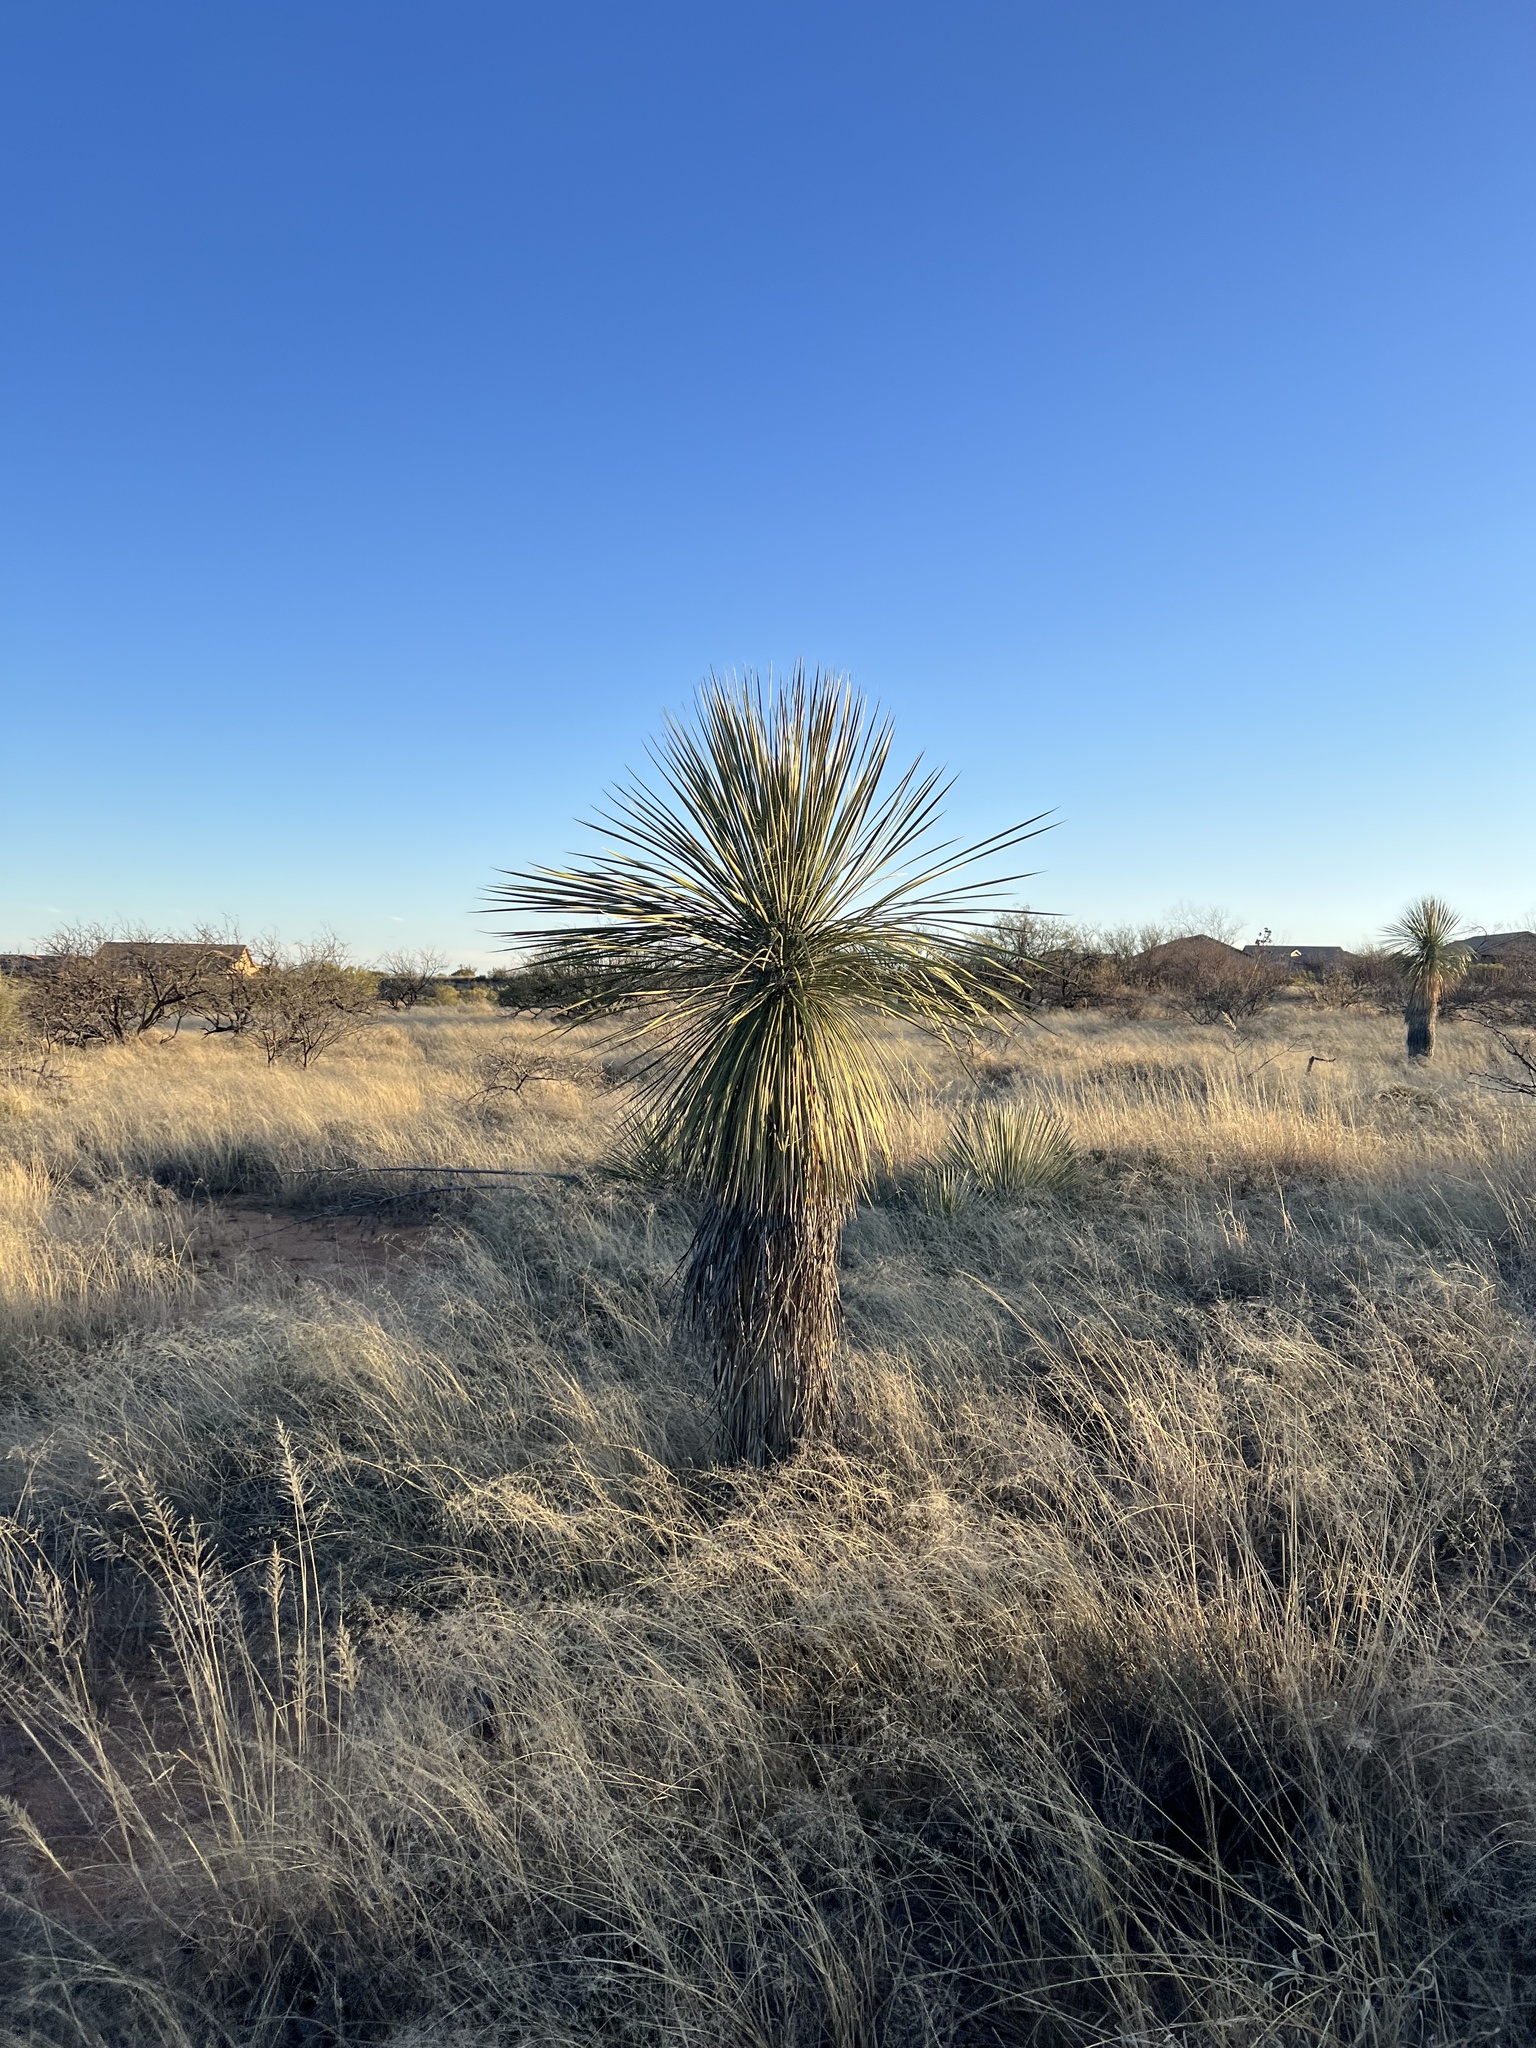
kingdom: Plantae
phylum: Tracheophyta
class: Liliopsida
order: Asparagales
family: Asparagaceae
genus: Yucca
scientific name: Yucca elata
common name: Palmella
